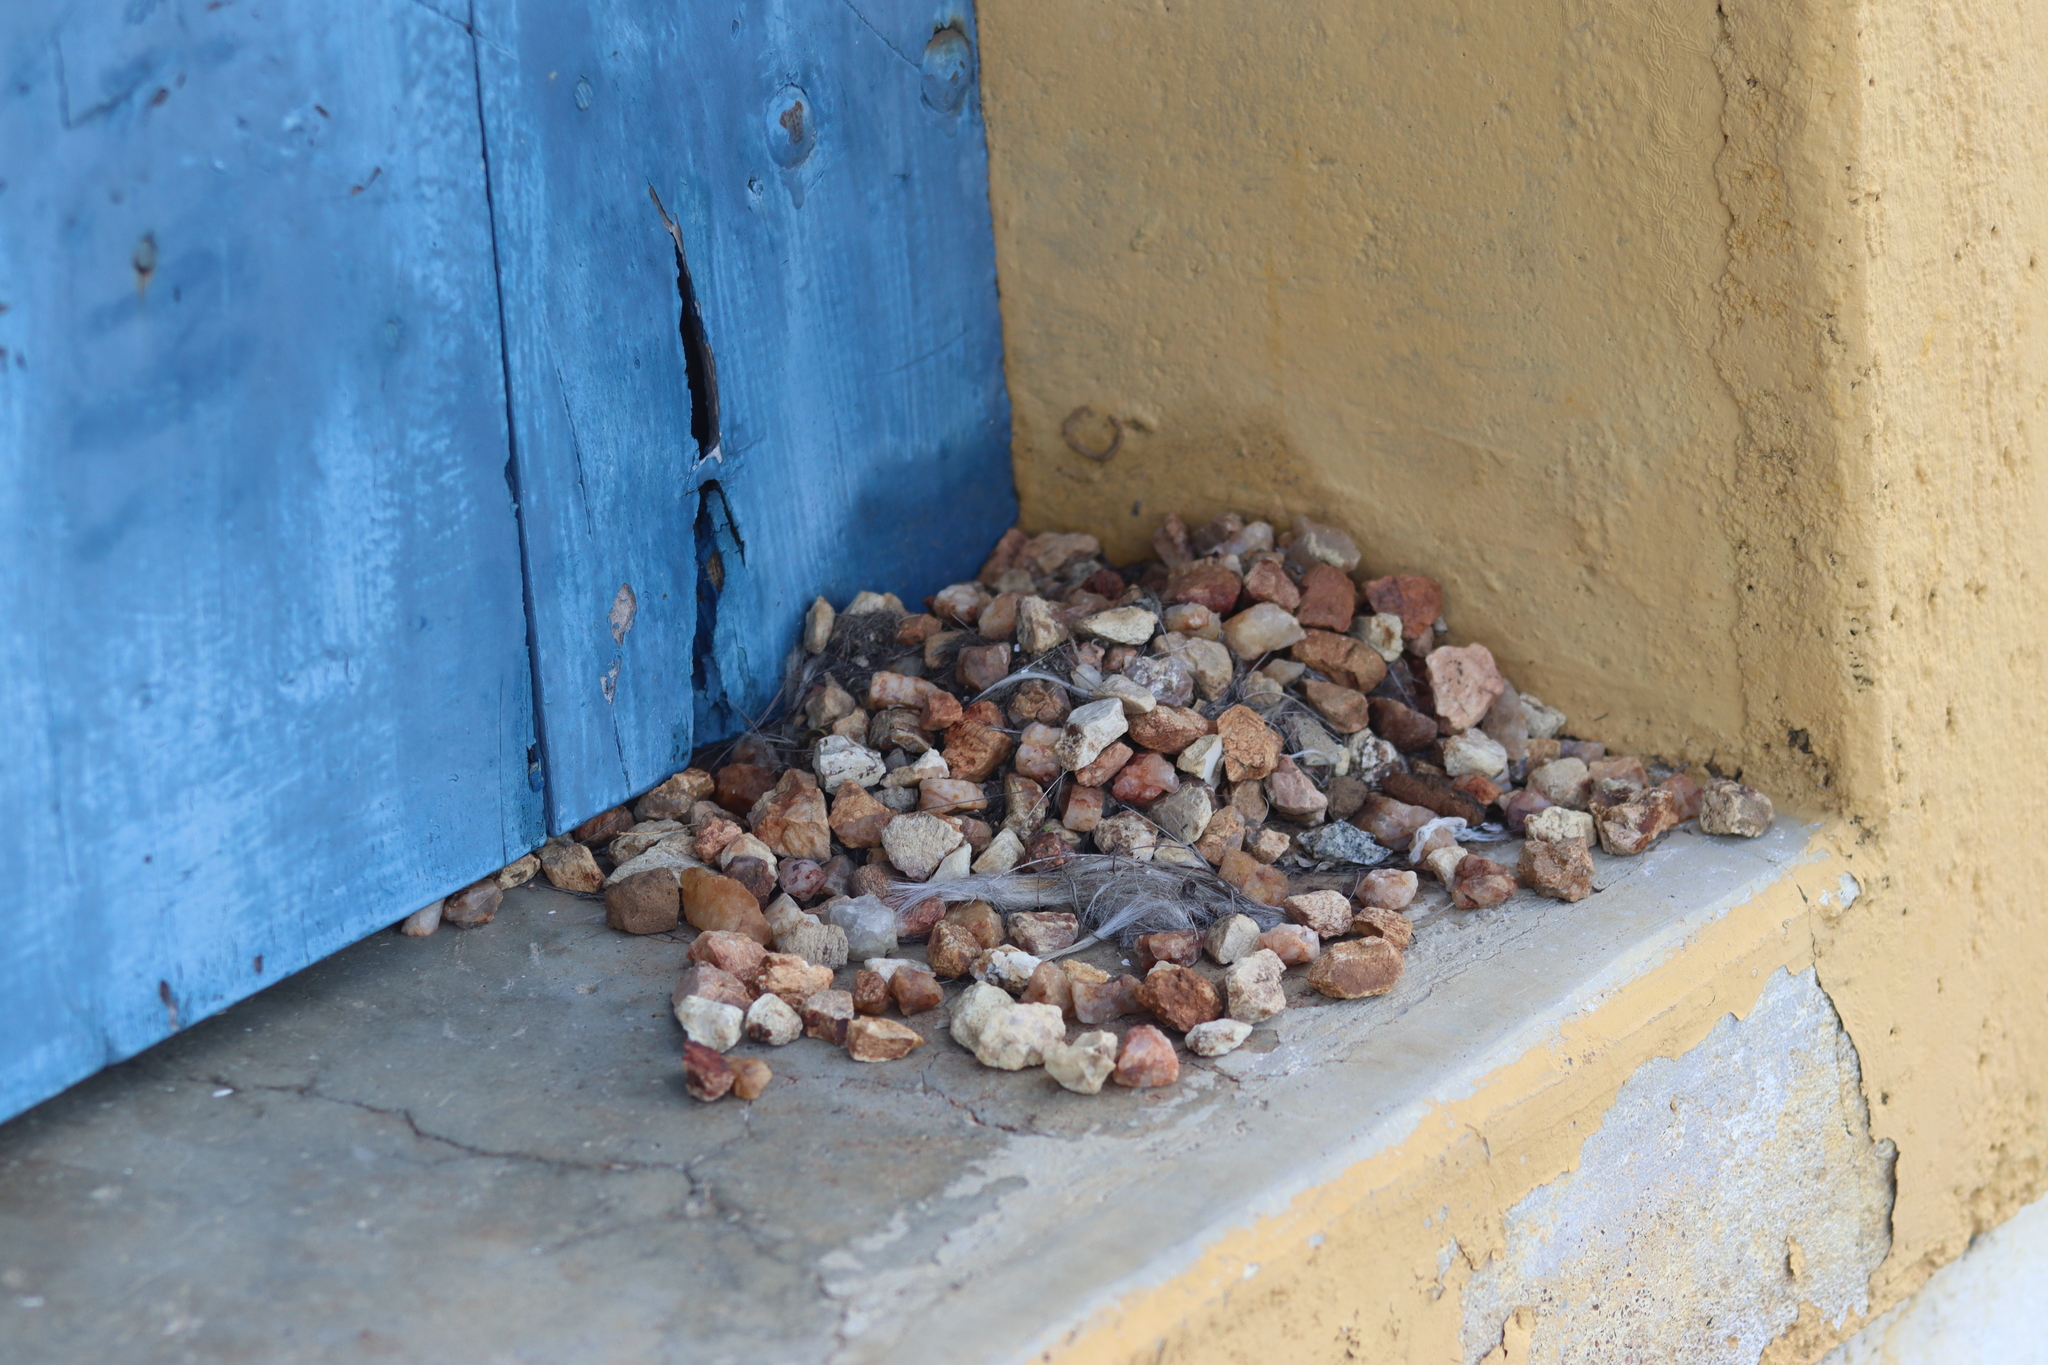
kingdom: Animalia
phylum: Chordata
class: Aves
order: Passeriformes
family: Tyrannidae
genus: Hirundinea
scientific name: Hirundinea ferruginea
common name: Cliff flycatcher
